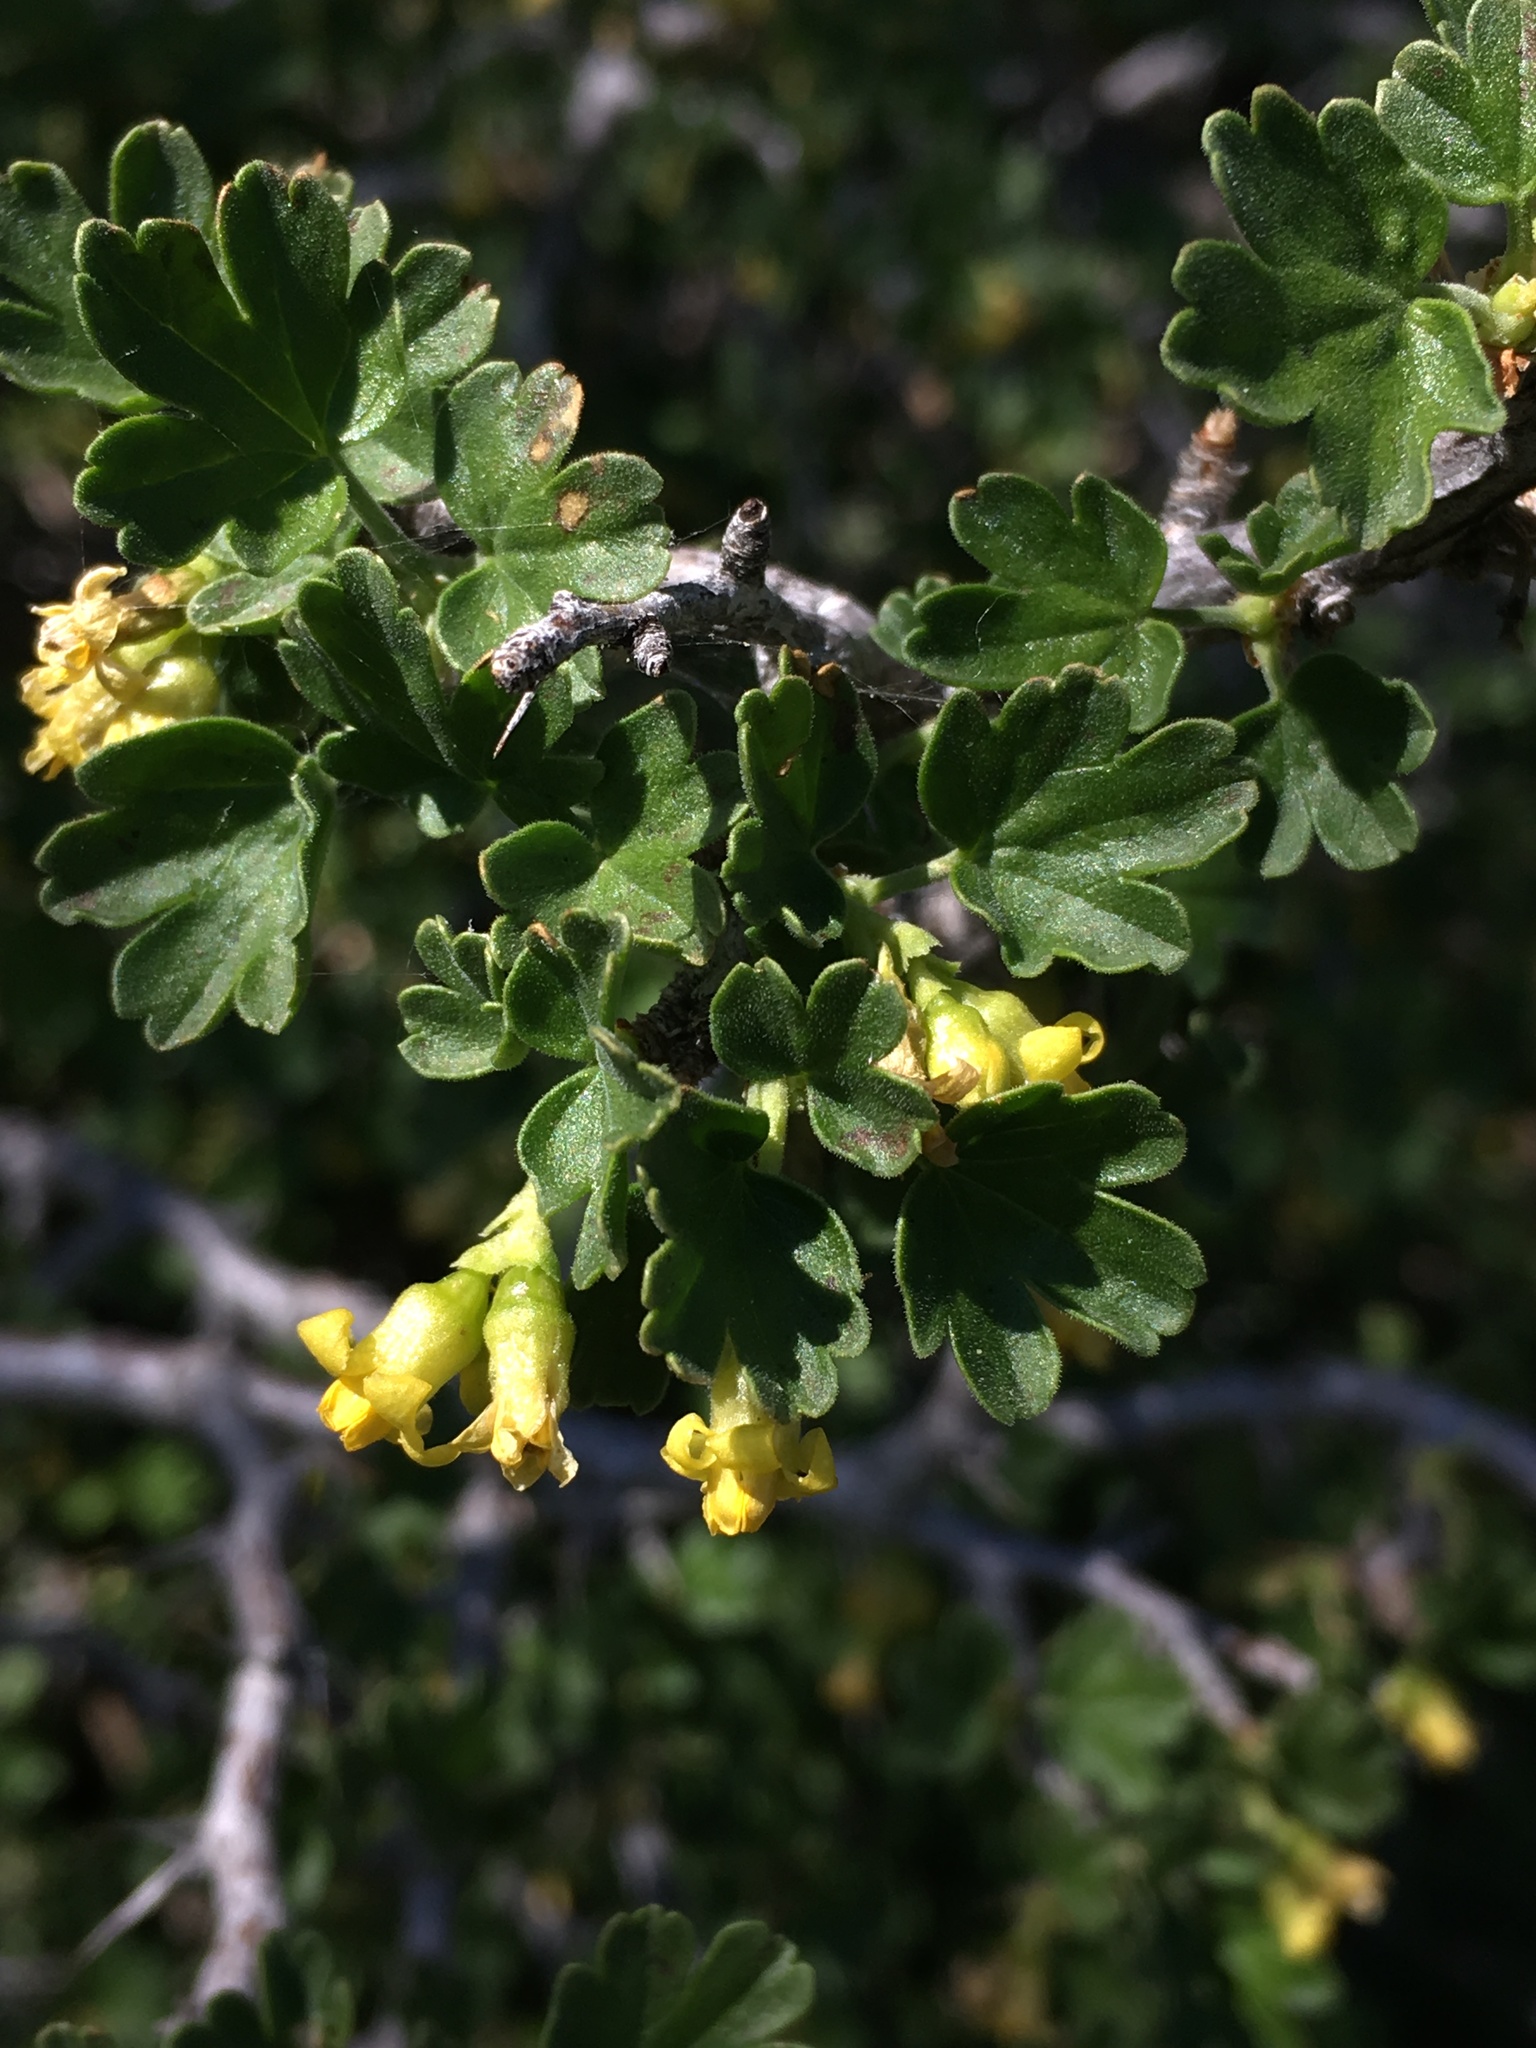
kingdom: Plantae
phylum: Tracheophyta
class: Magnoliopsida
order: Saxifragales
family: Grossulariaceae
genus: Ribes
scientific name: Ribes velutinum
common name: Desert gooseberry
